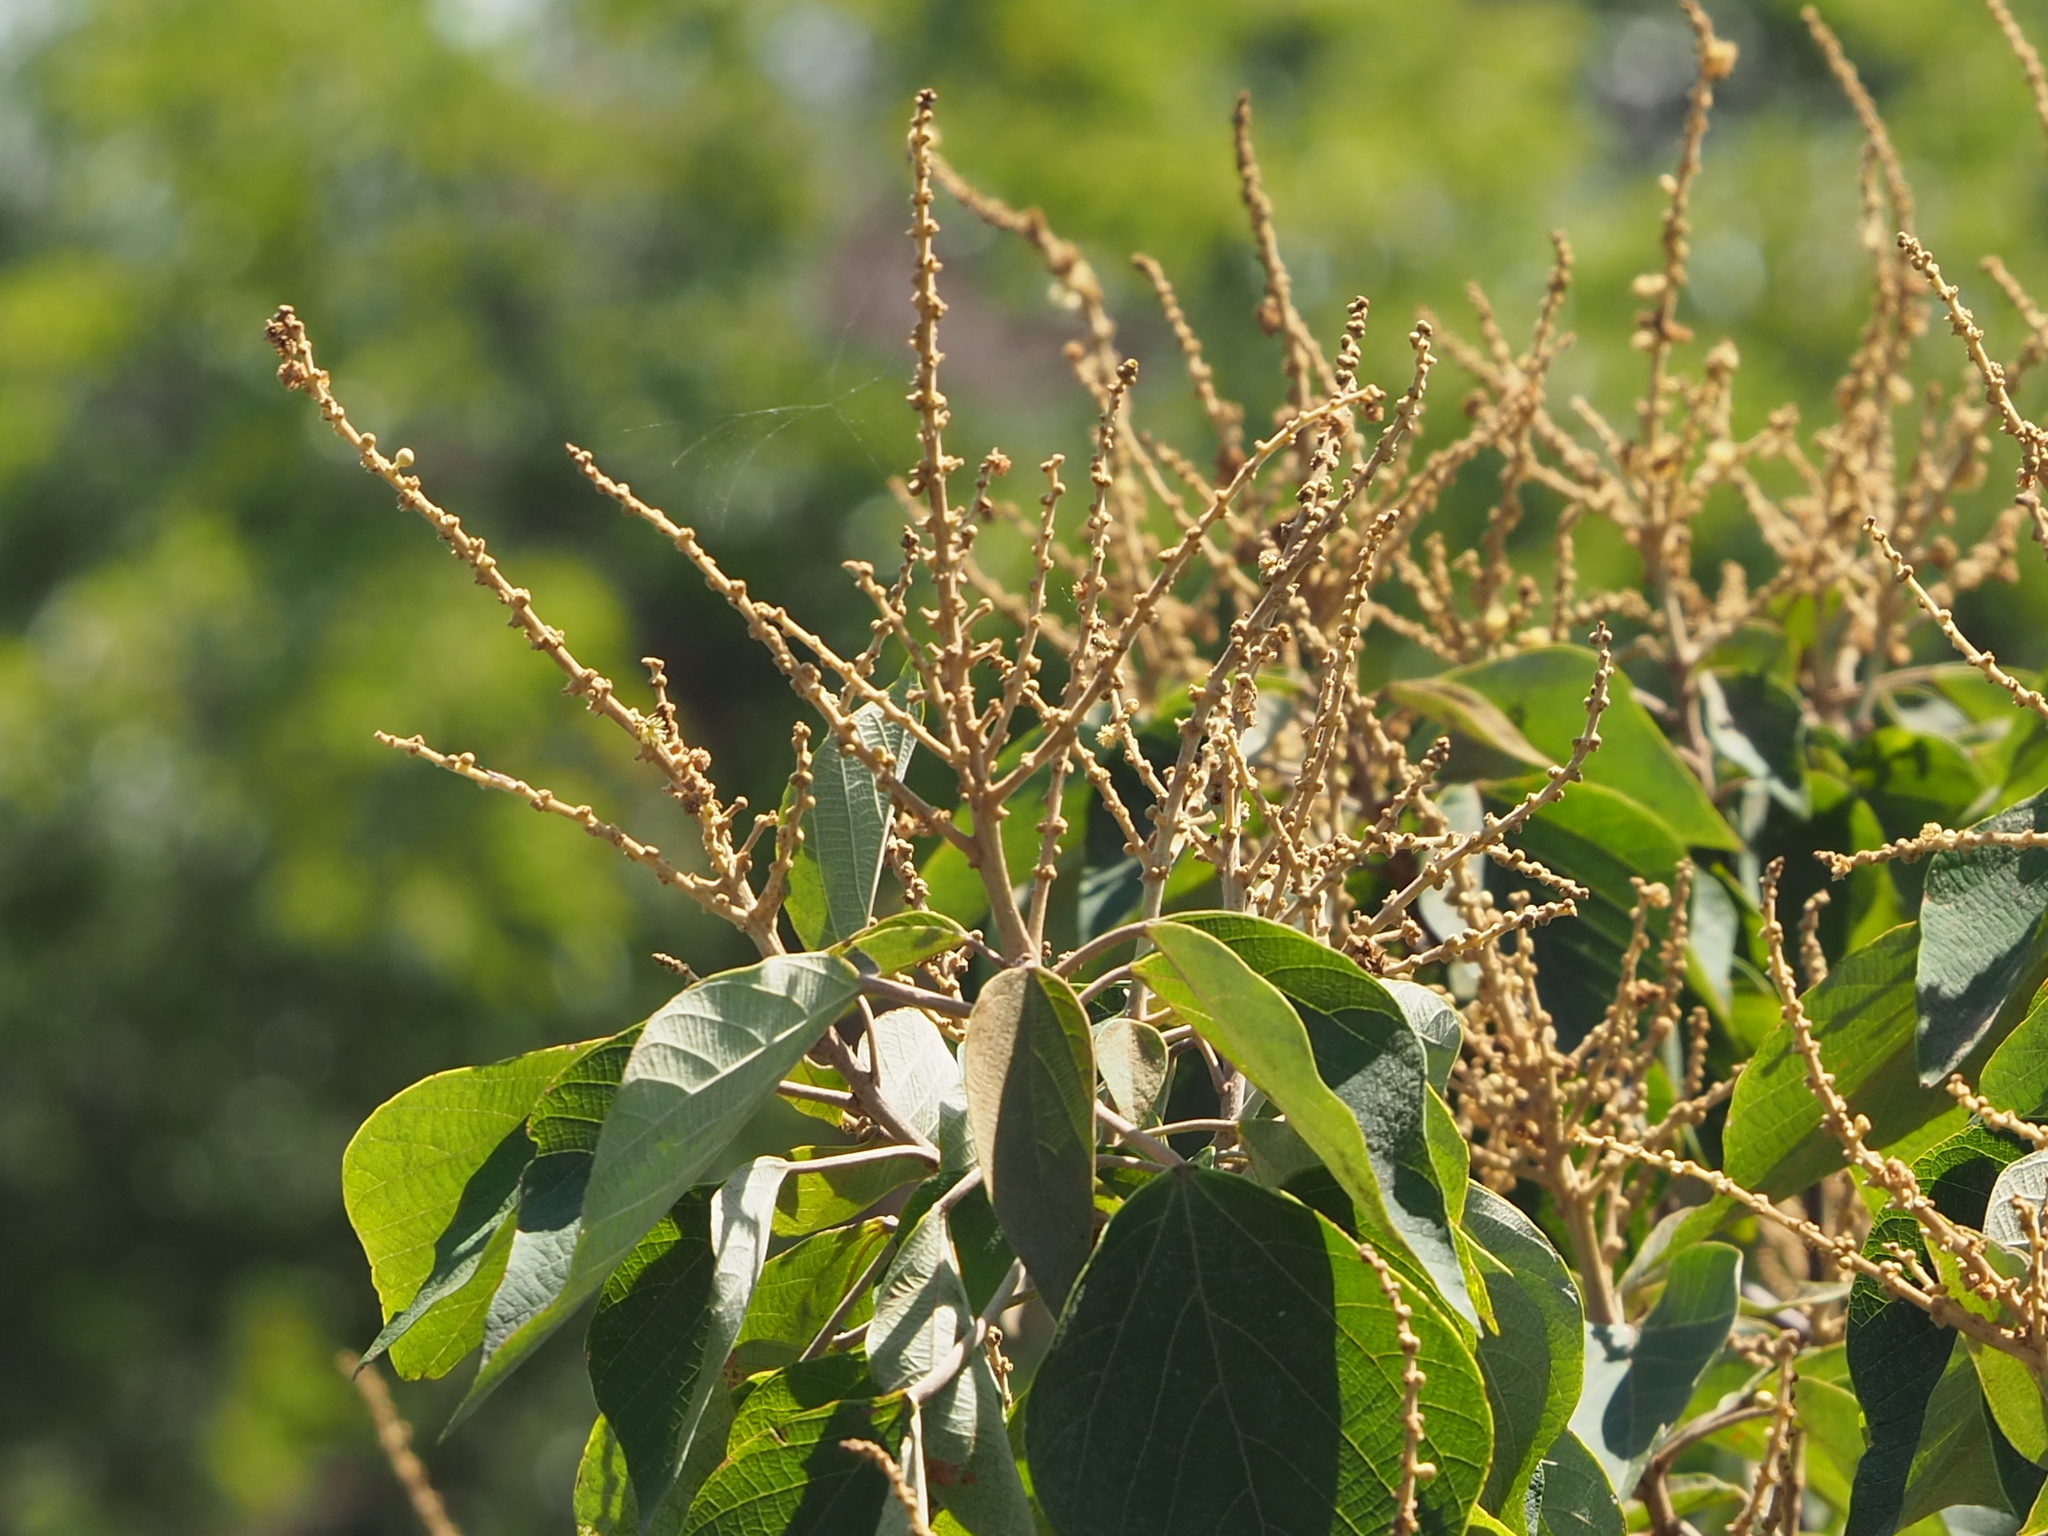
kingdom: Plantae
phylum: Tracheophyta
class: Magnoliopsida
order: Malpighiales
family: Euphorbiaceae
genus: Mallotus
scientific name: Mallotus paniculatus
